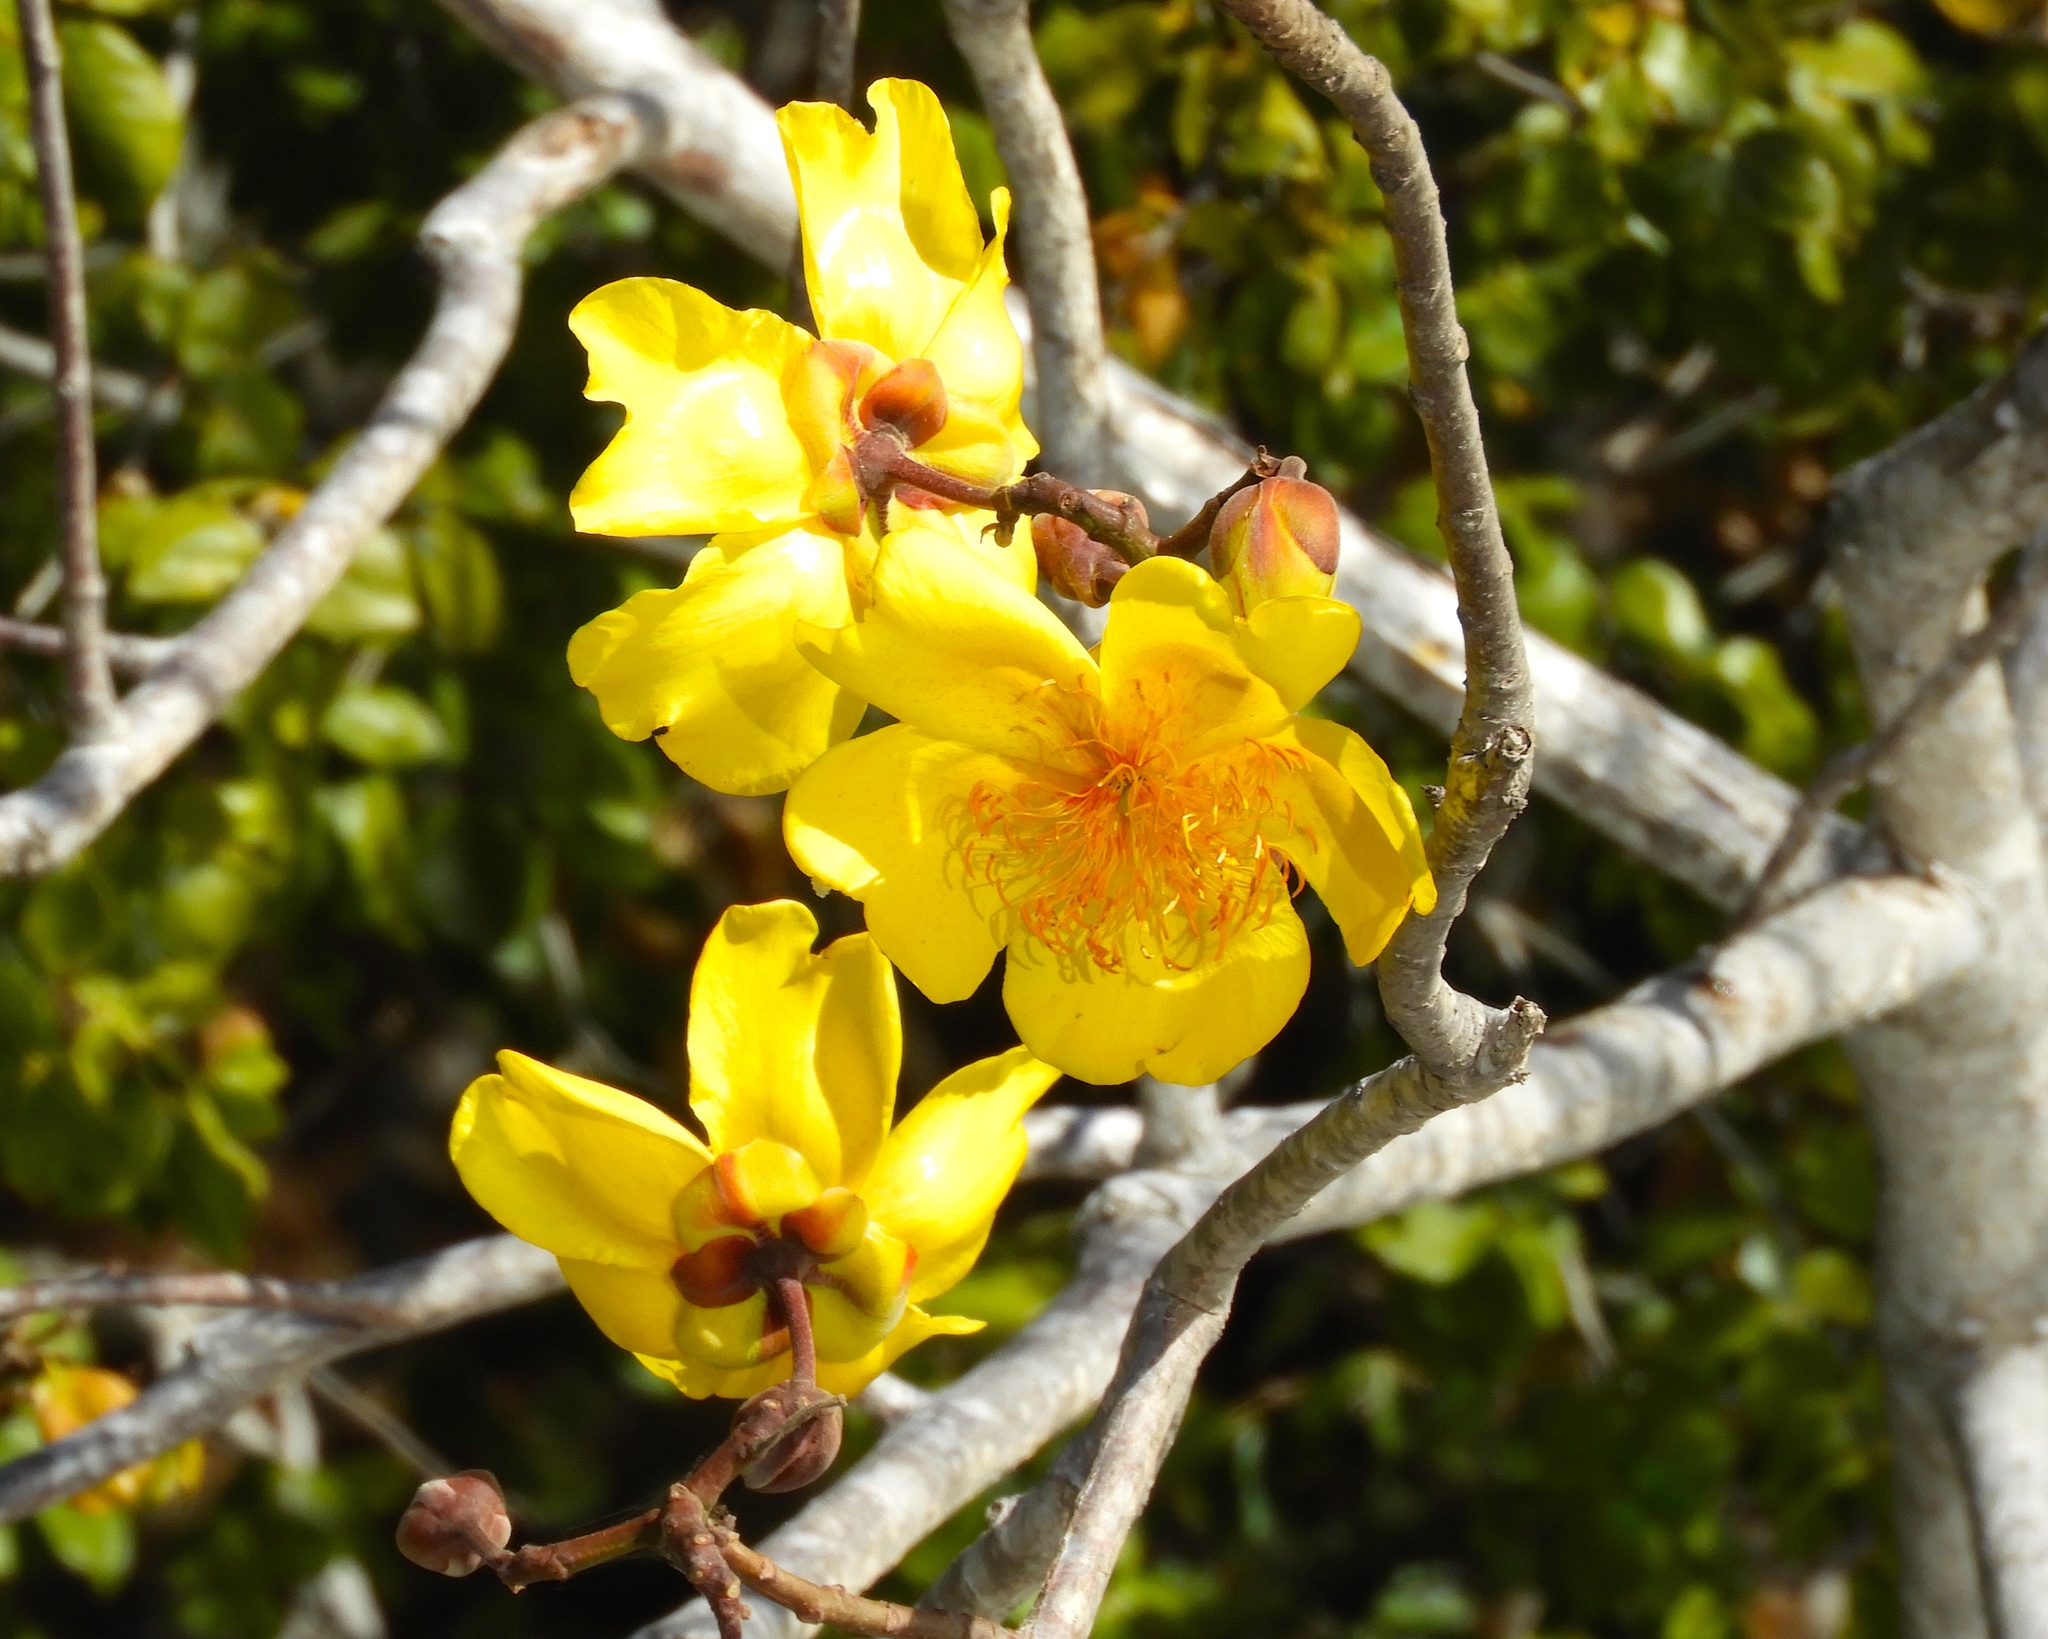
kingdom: Plantae
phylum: Tracheophyta
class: Magnoliopsida
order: Malvales
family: Cochlospermaceae
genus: Cochlospermum
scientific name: Cochlospermum vitifolium
